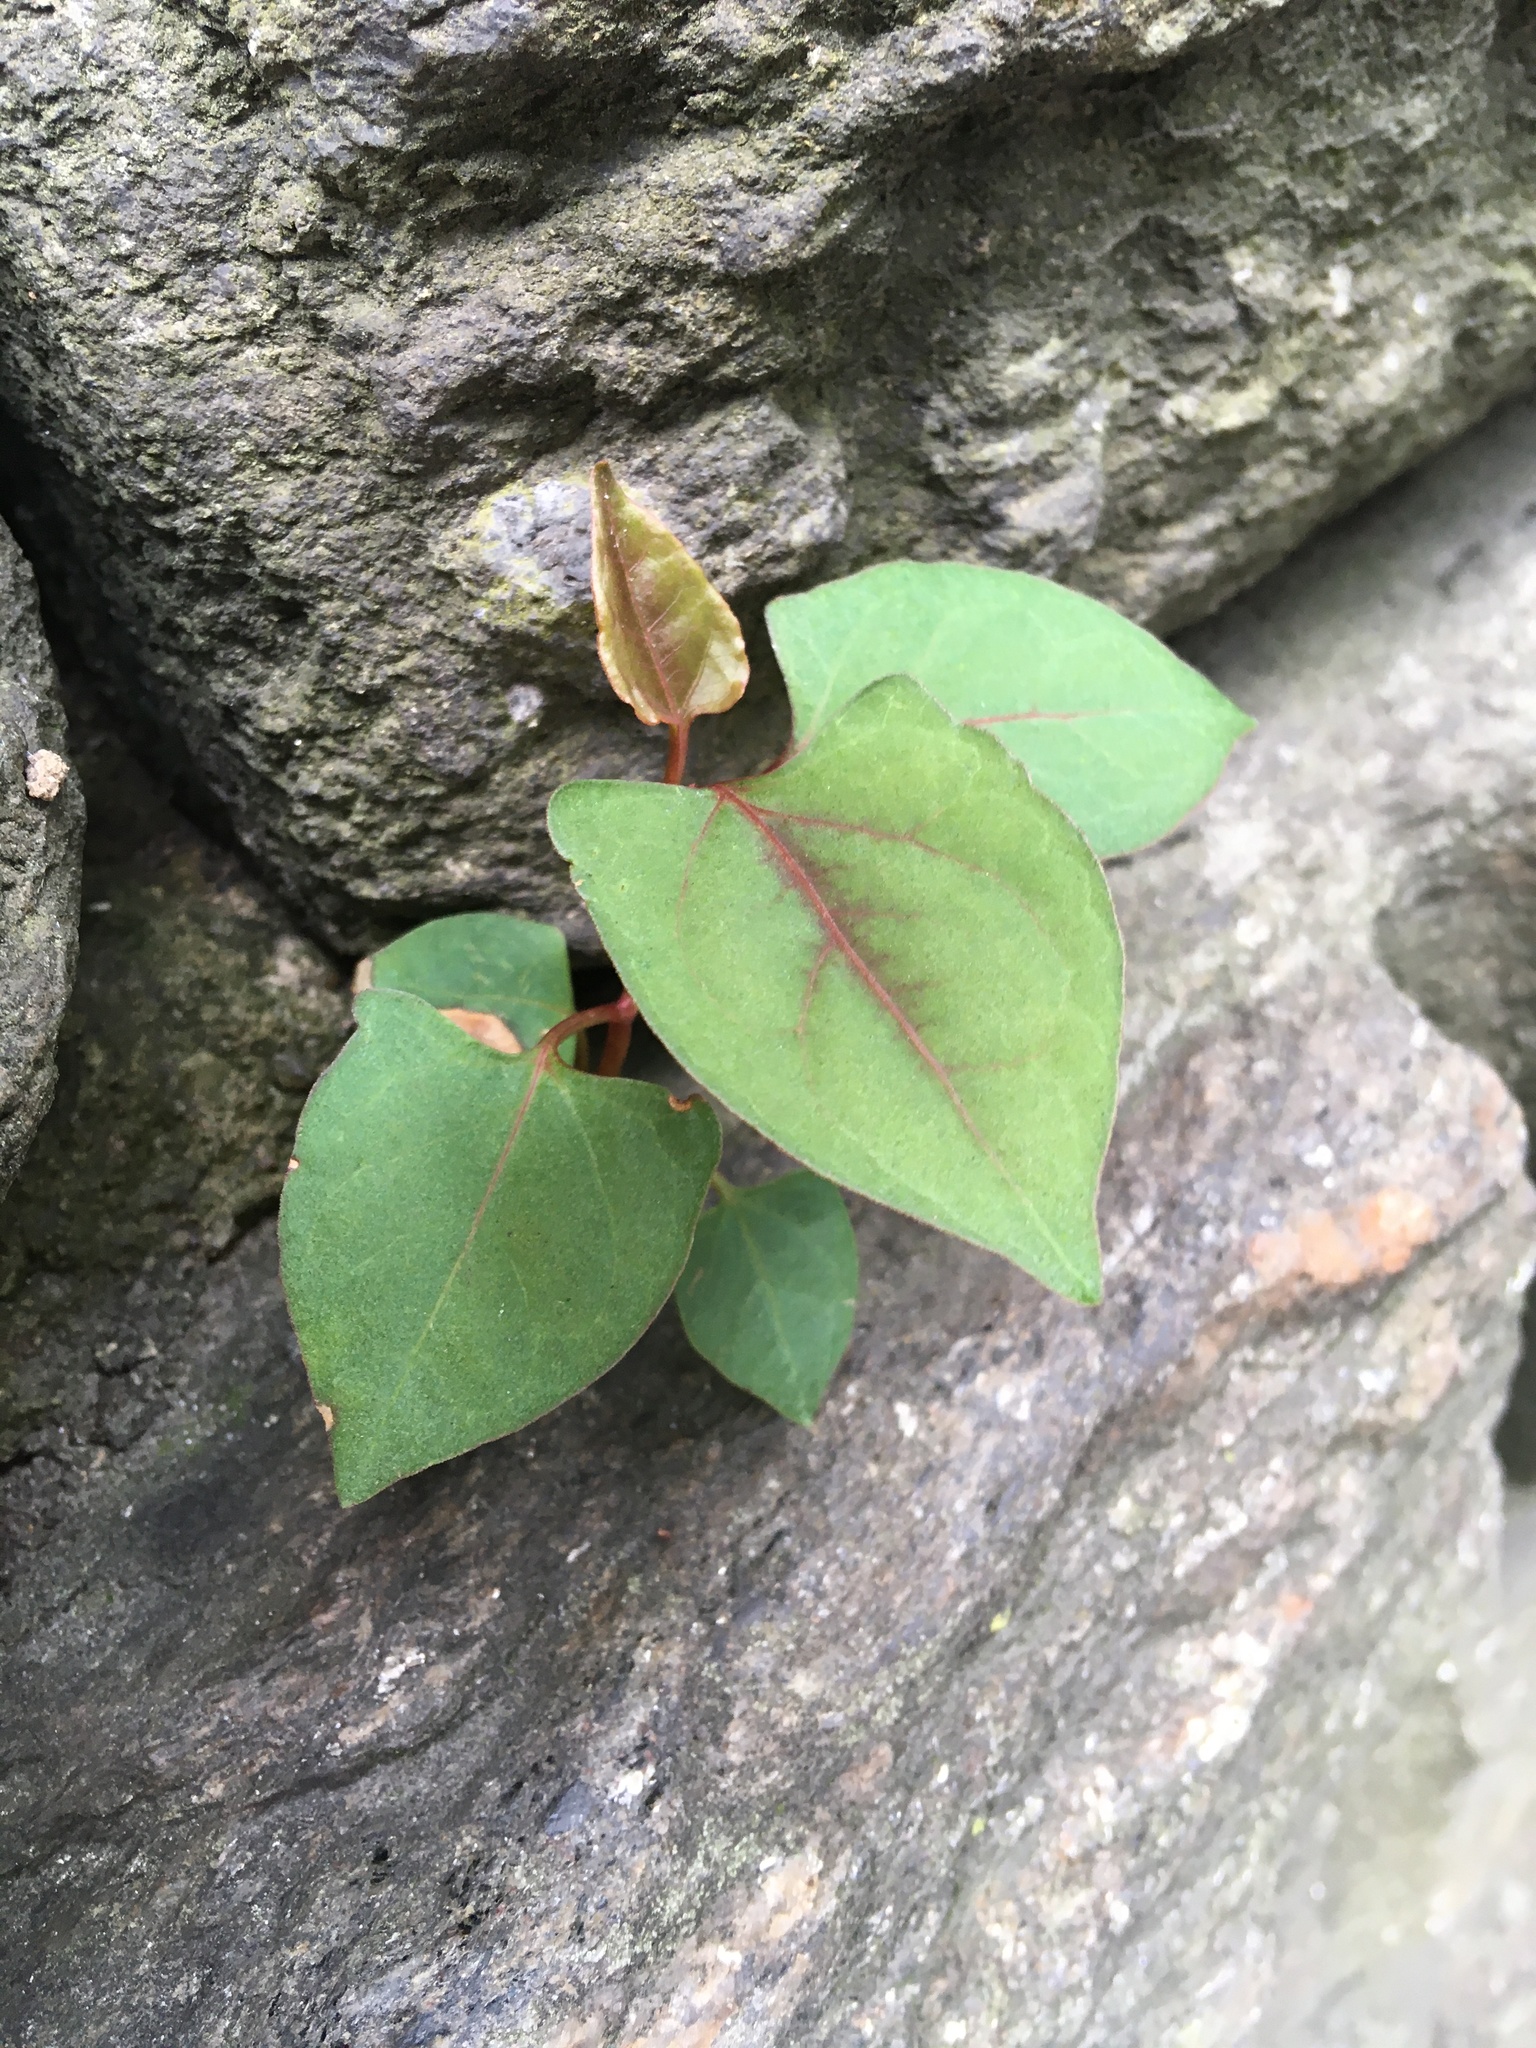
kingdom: Plantae
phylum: Tracheophyta
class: Magnoliopsida
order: Caryophyllales
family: Polygonaceae
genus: Reynoutria
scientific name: Reynoutria japonica
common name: Japanese knotweed
